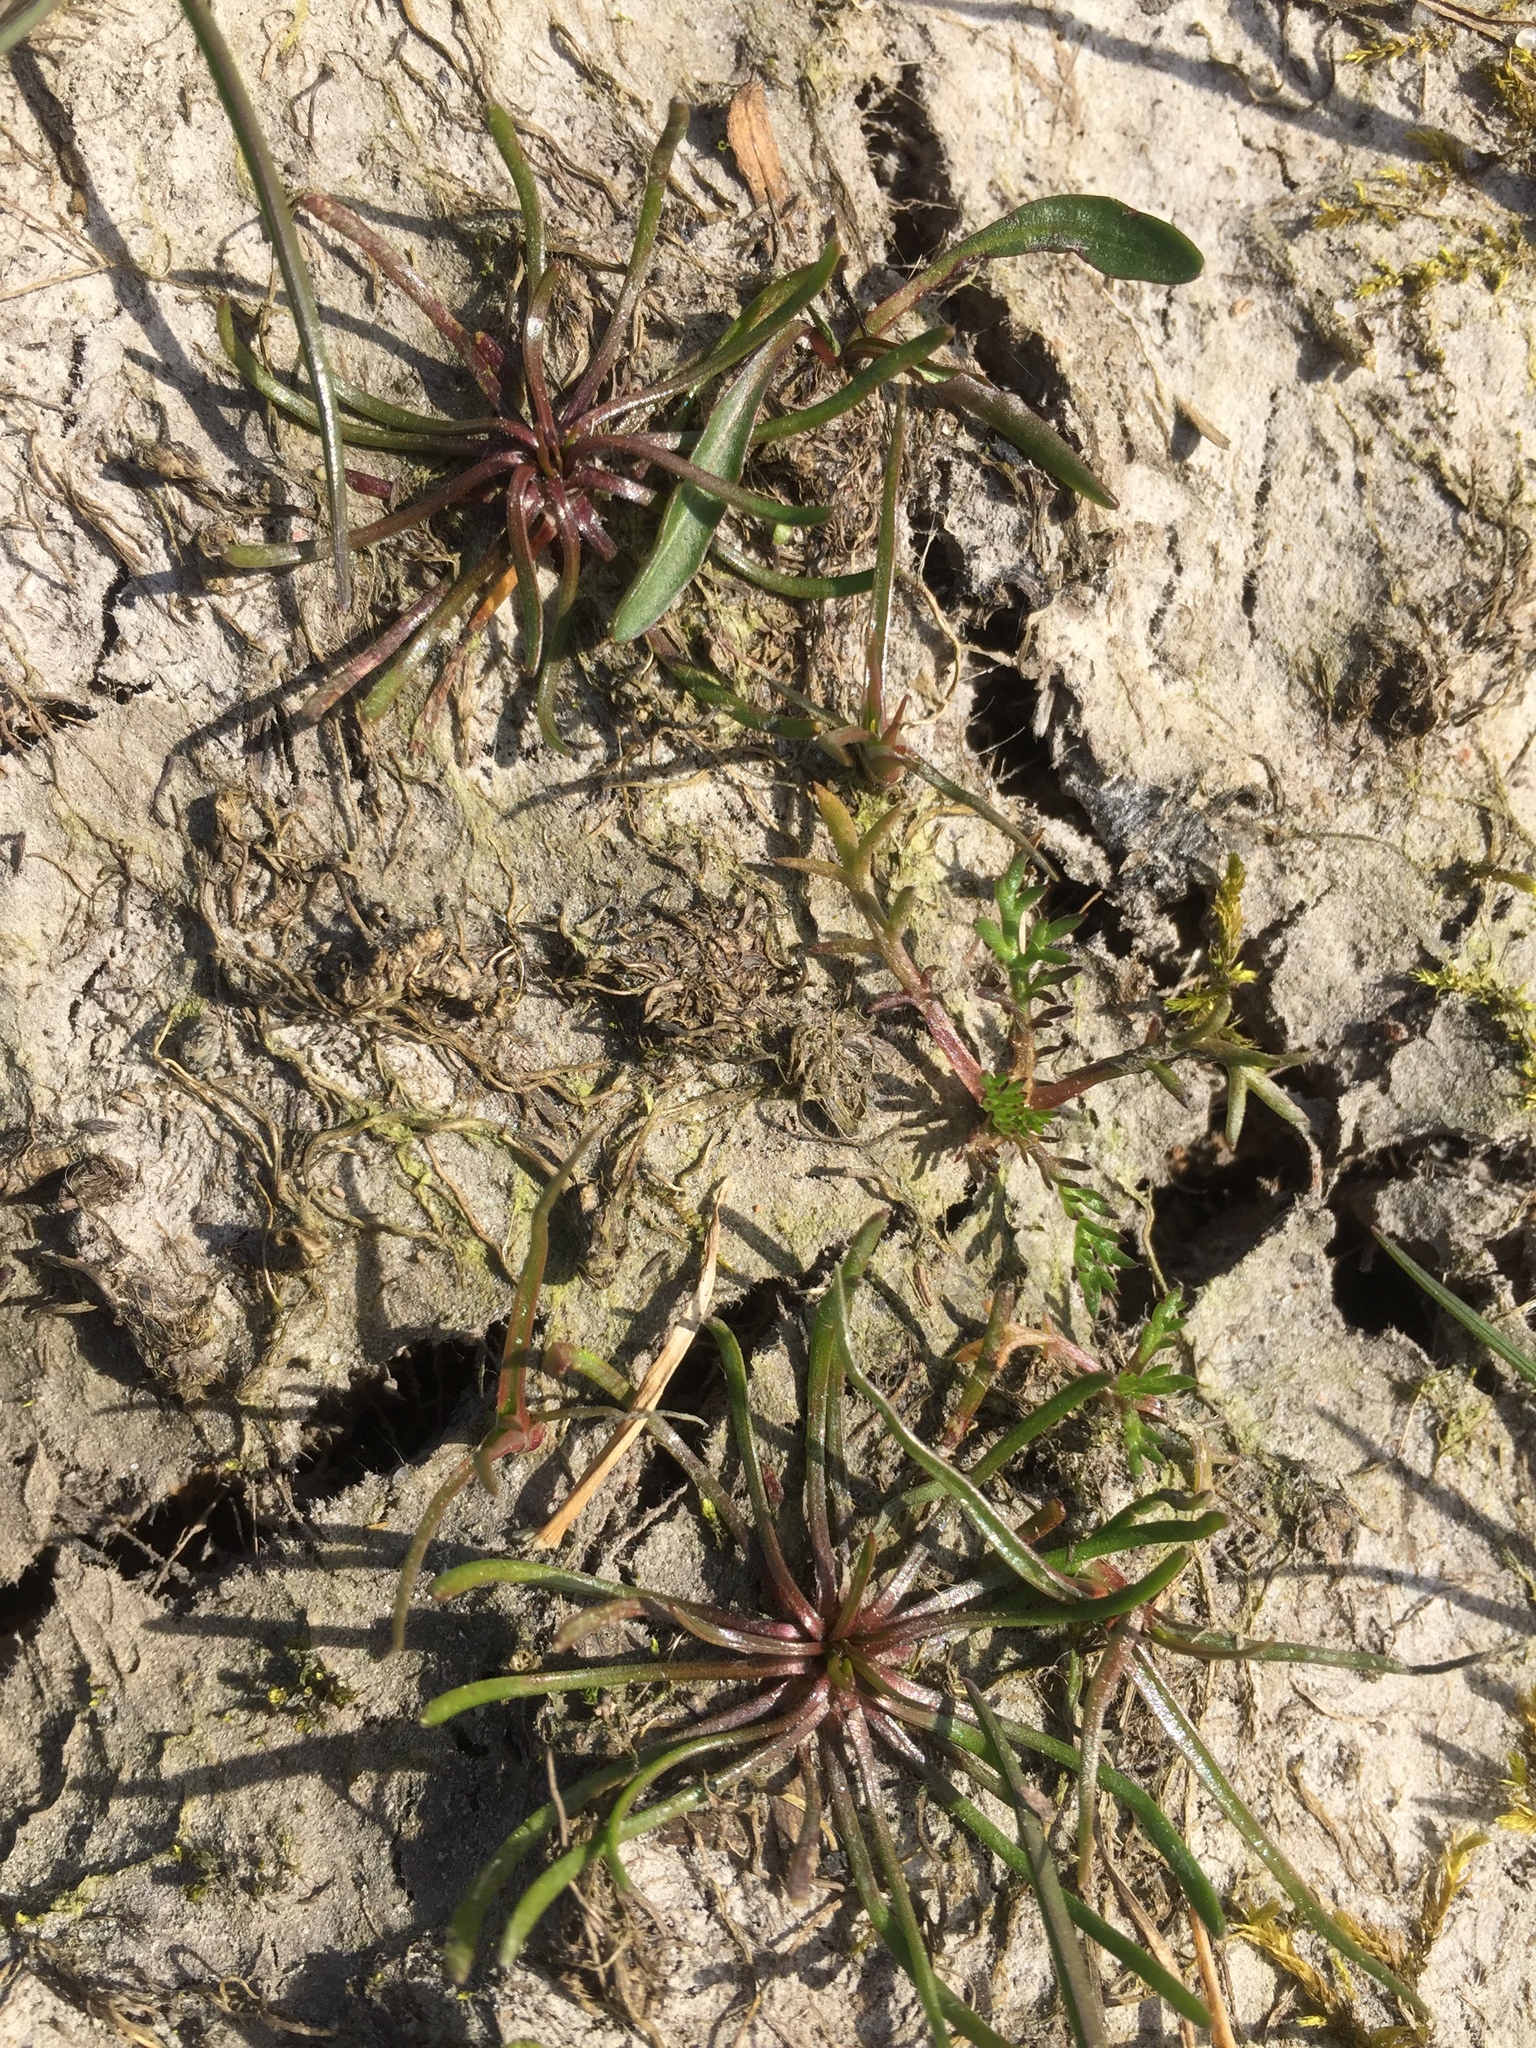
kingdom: Plantae
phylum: Tracheophyta
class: Magnoliopsida
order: Ranunculales
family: Ranunculaceae
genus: Myosurus
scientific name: Myosurus minimus
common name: Mousetail
